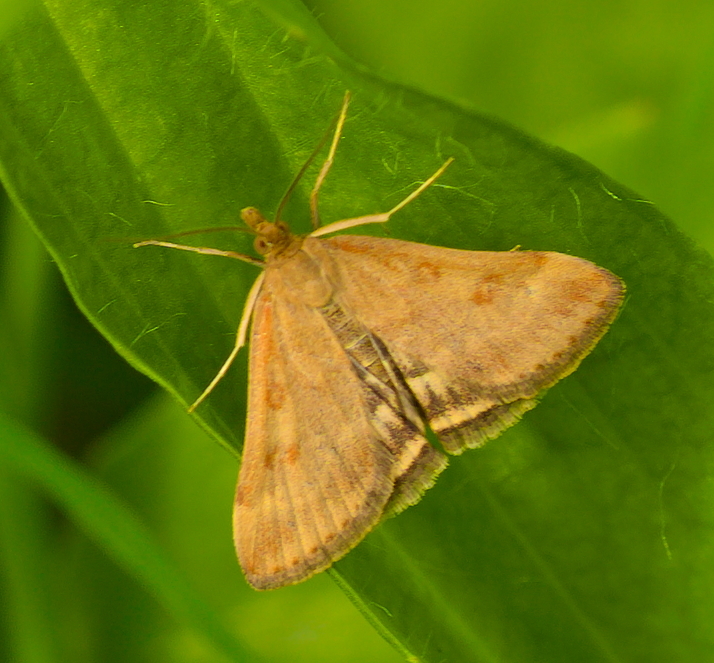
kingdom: Animalia
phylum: Arthropoda
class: Insecta
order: Lepidoptera
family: Crambidae
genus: Pyrausta
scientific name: Pyrausta despicata
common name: Straw-barred pearl
